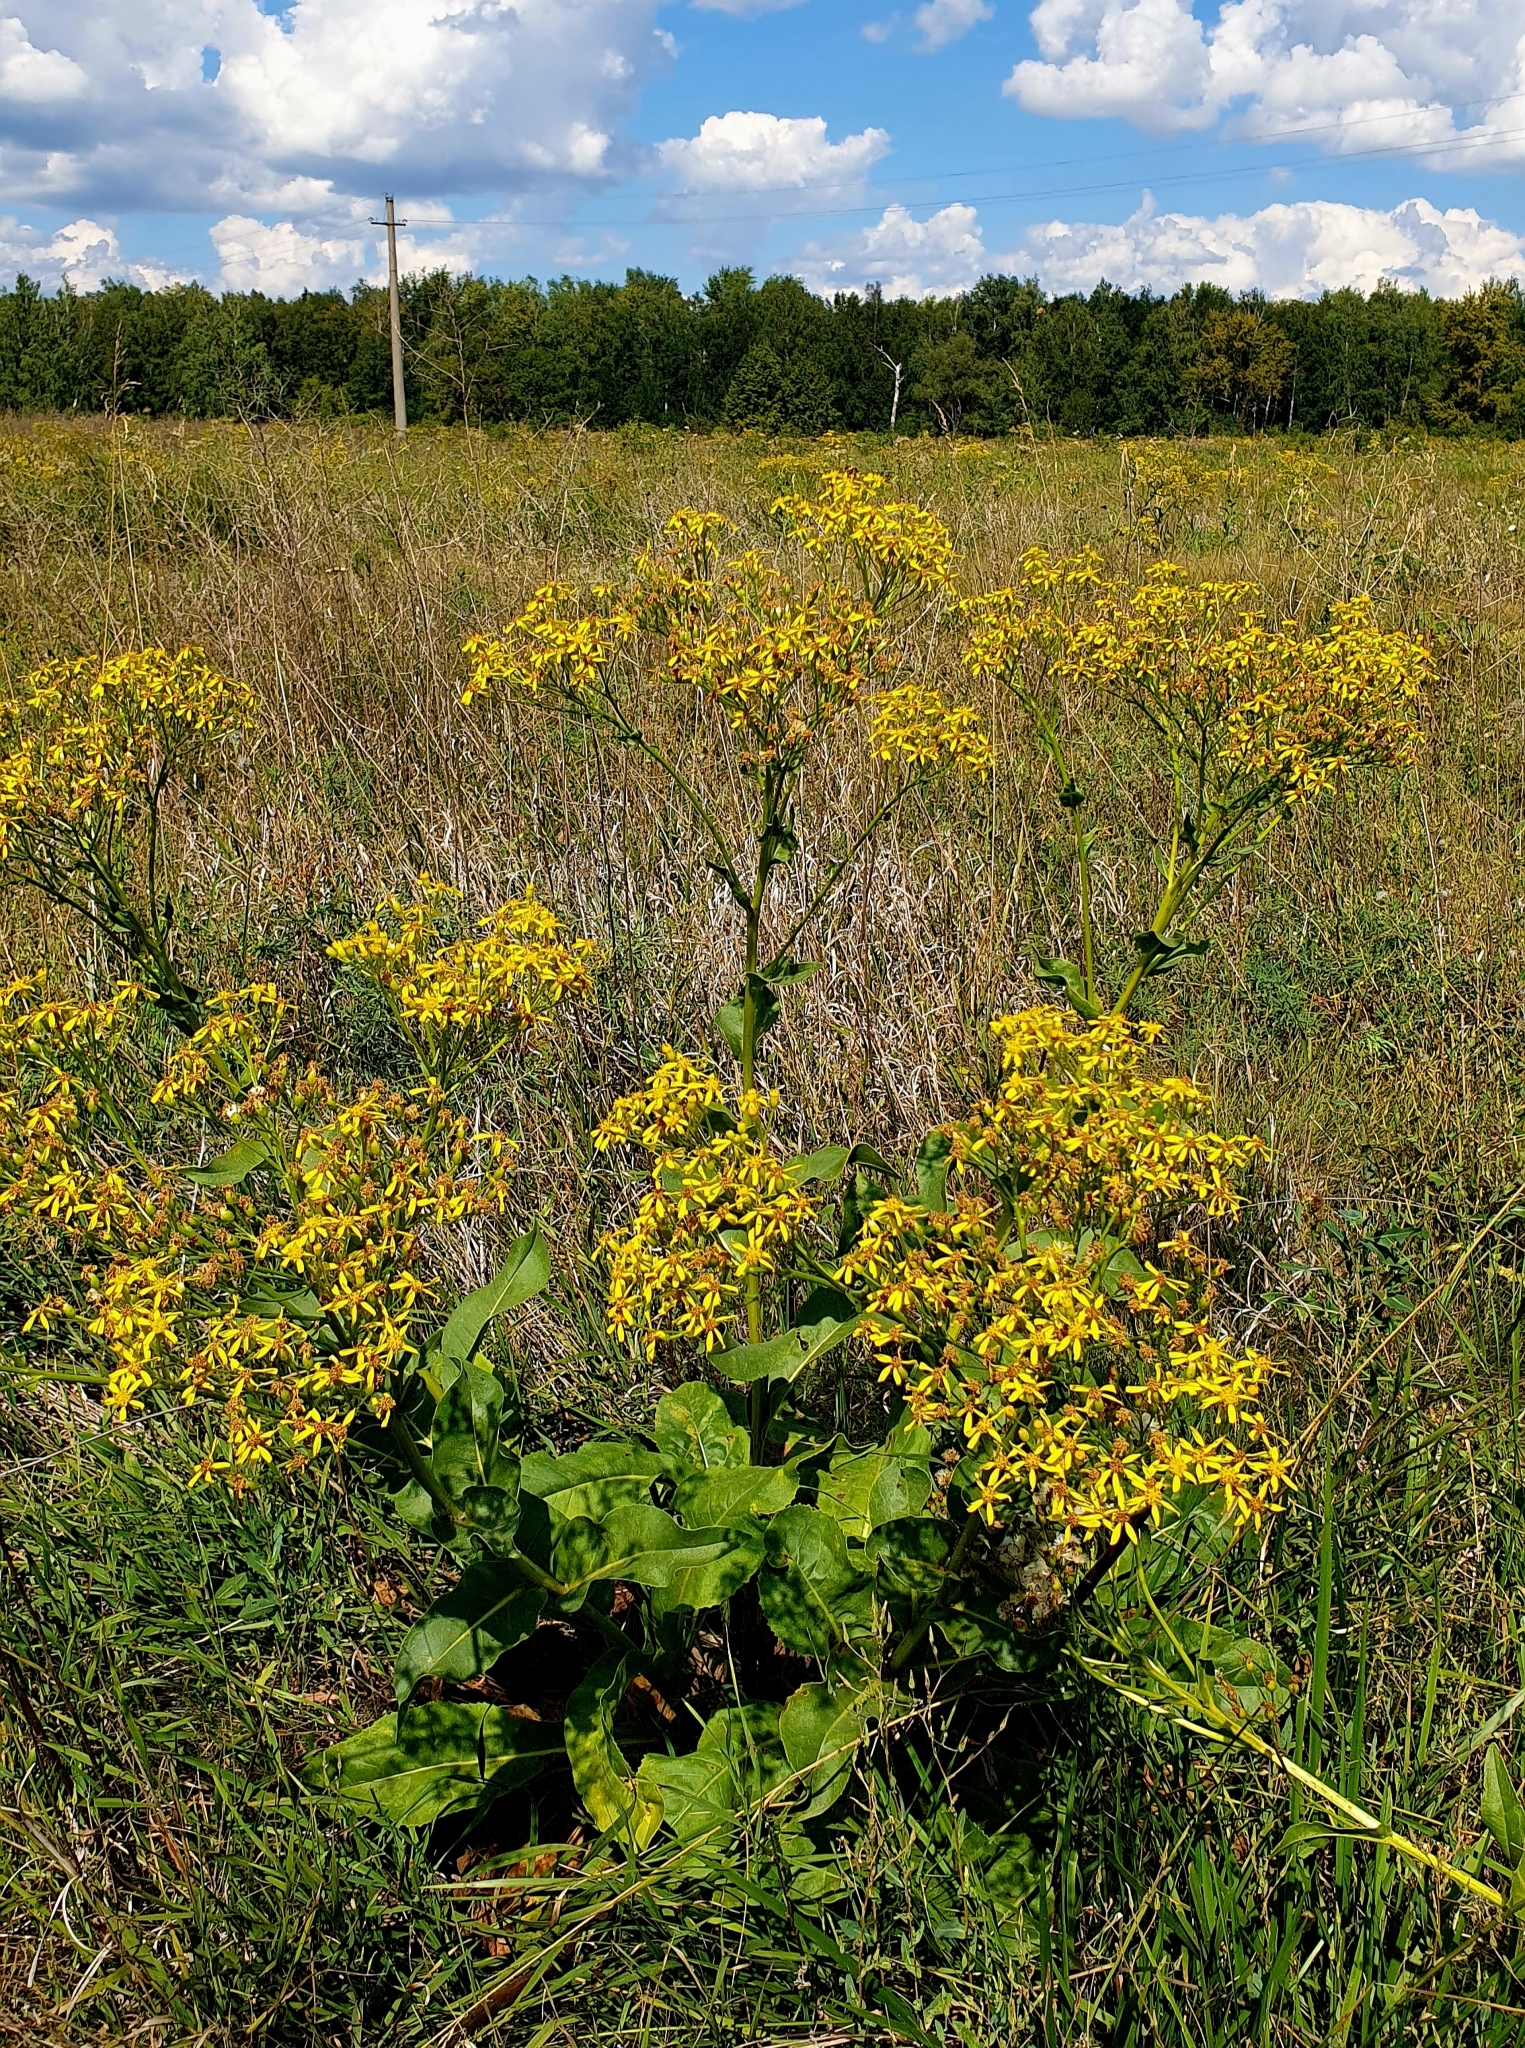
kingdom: Plantae
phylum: Tracheophyta
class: Magnoliopsida
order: Asterales
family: Asteraceae
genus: Senecio
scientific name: Senecio doria
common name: Golden ragwort
